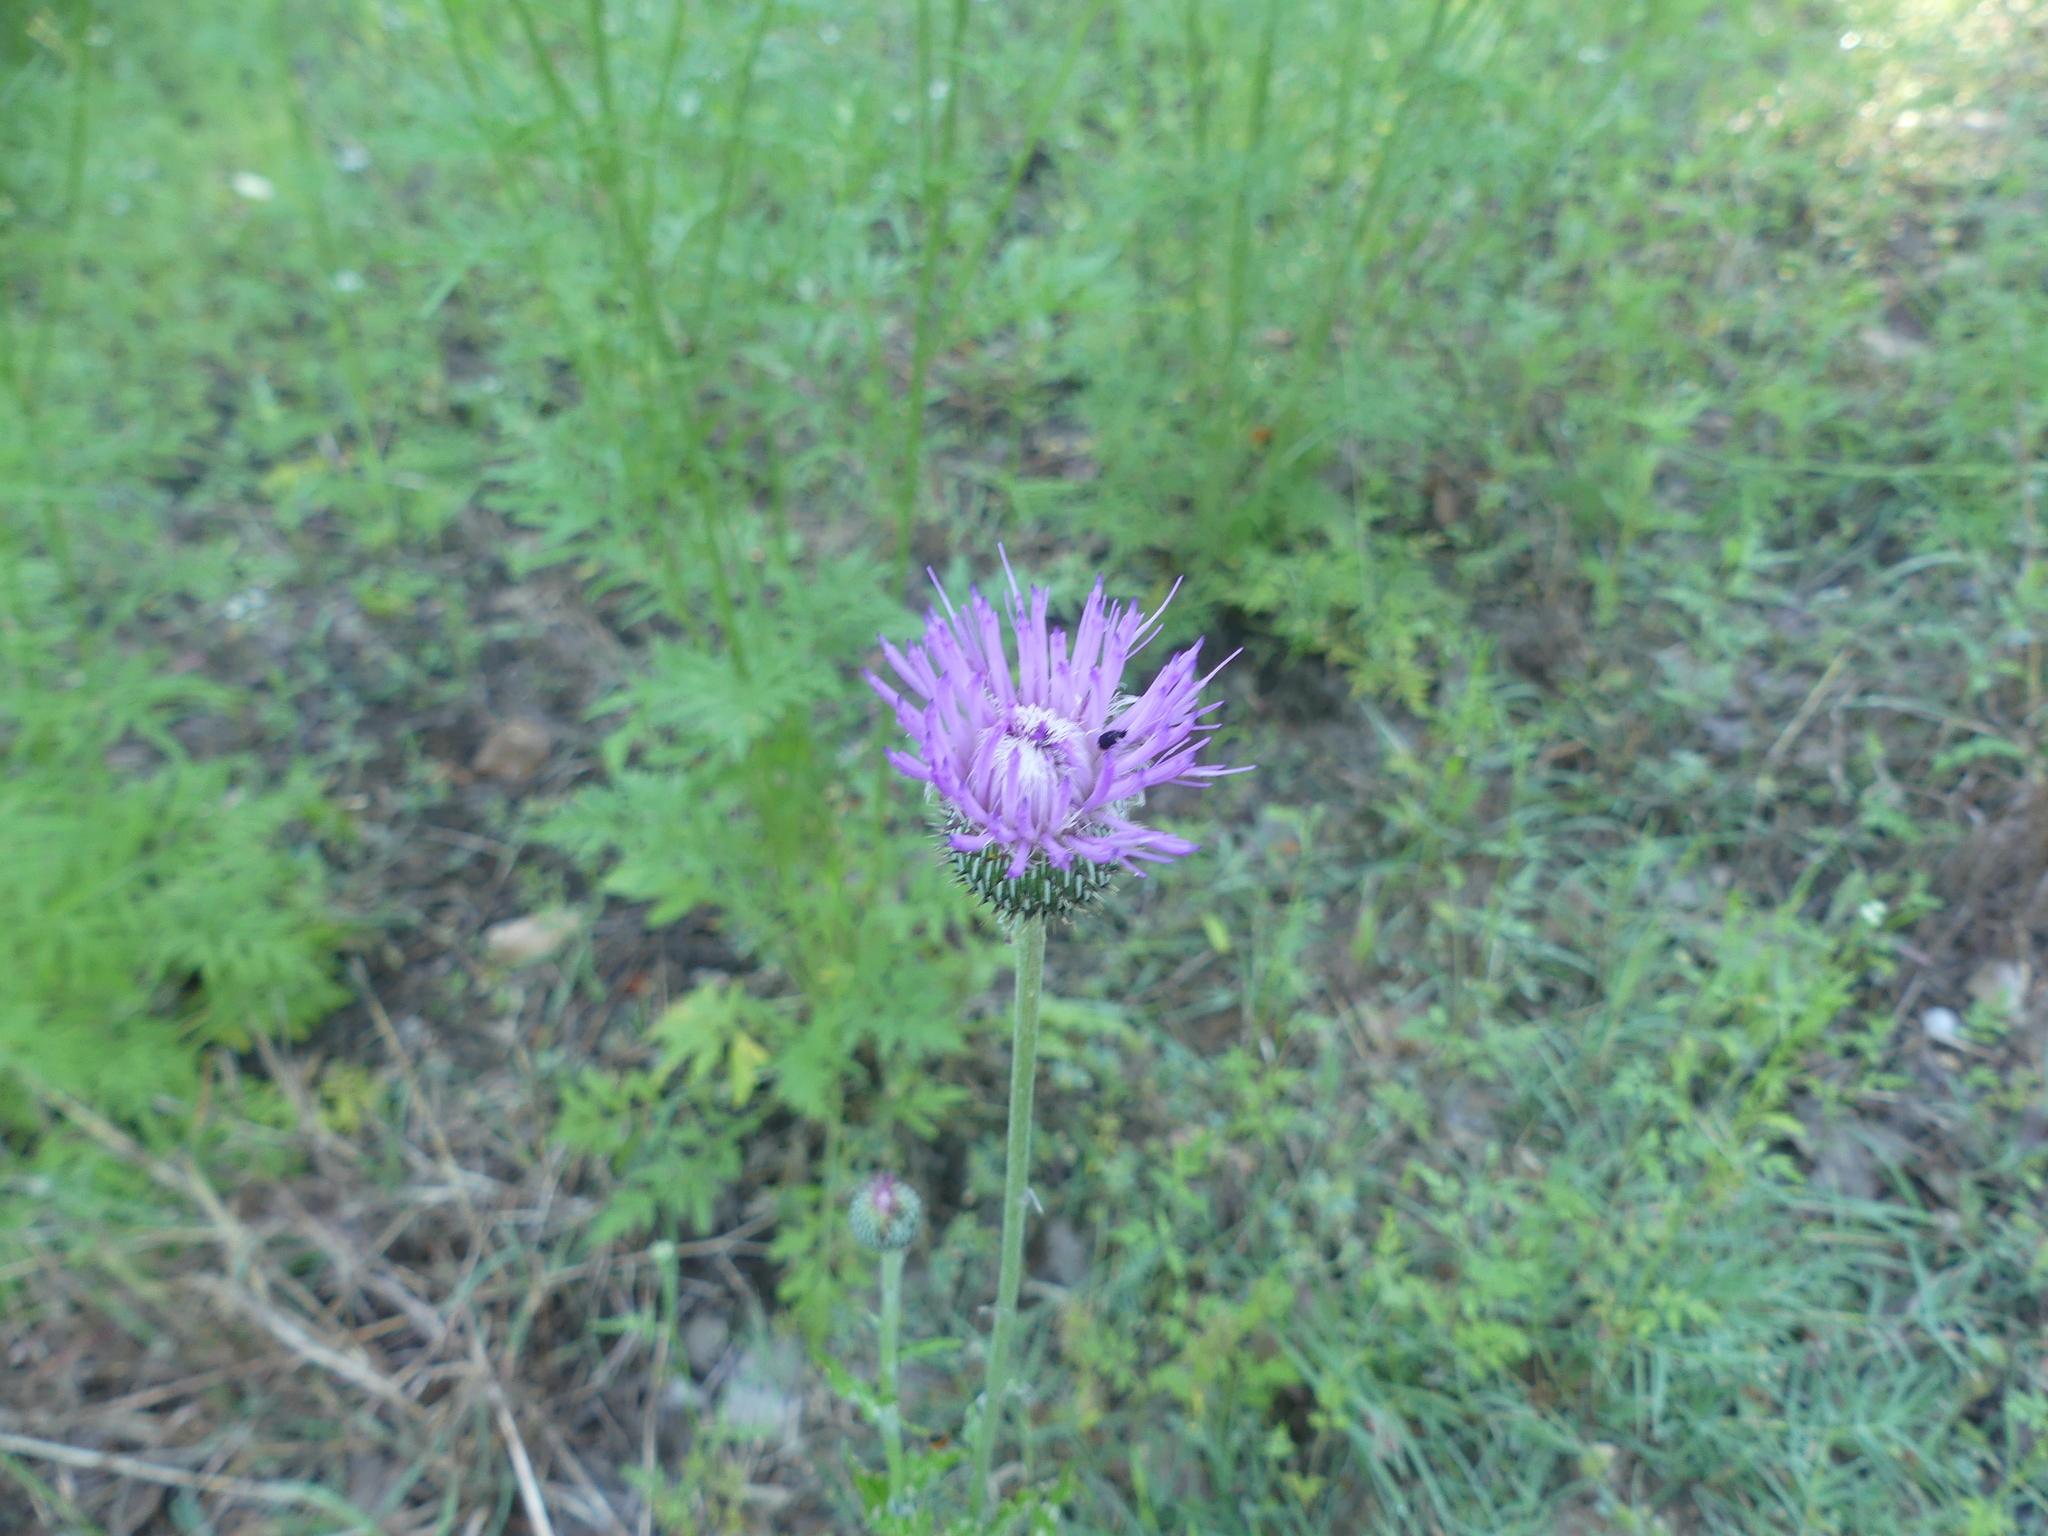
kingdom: Plantae
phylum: Tracheophyta
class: Magnoliopsida
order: Asterales
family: Asteraceae
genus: Cirsium
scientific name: Cirsium texanum
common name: Texas purple thistle
